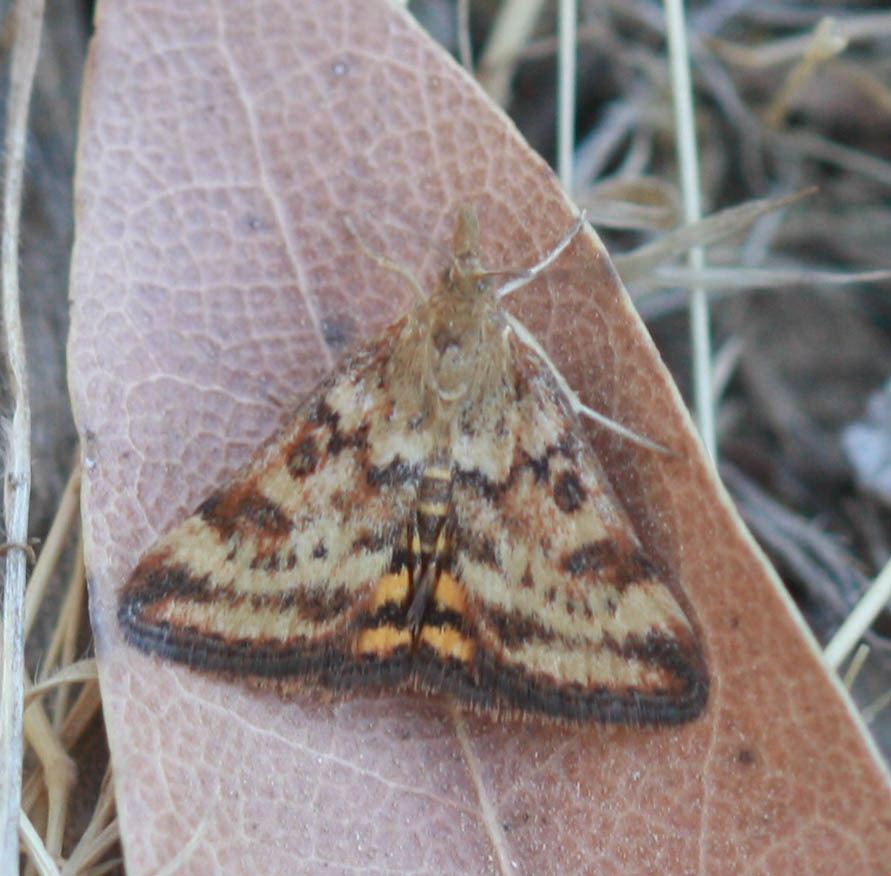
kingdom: Animalia
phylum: Arthropoda
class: Insecta
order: Lepidoptera
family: Crambidae
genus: Pyrausta
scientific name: Pyrausta subsequalis
